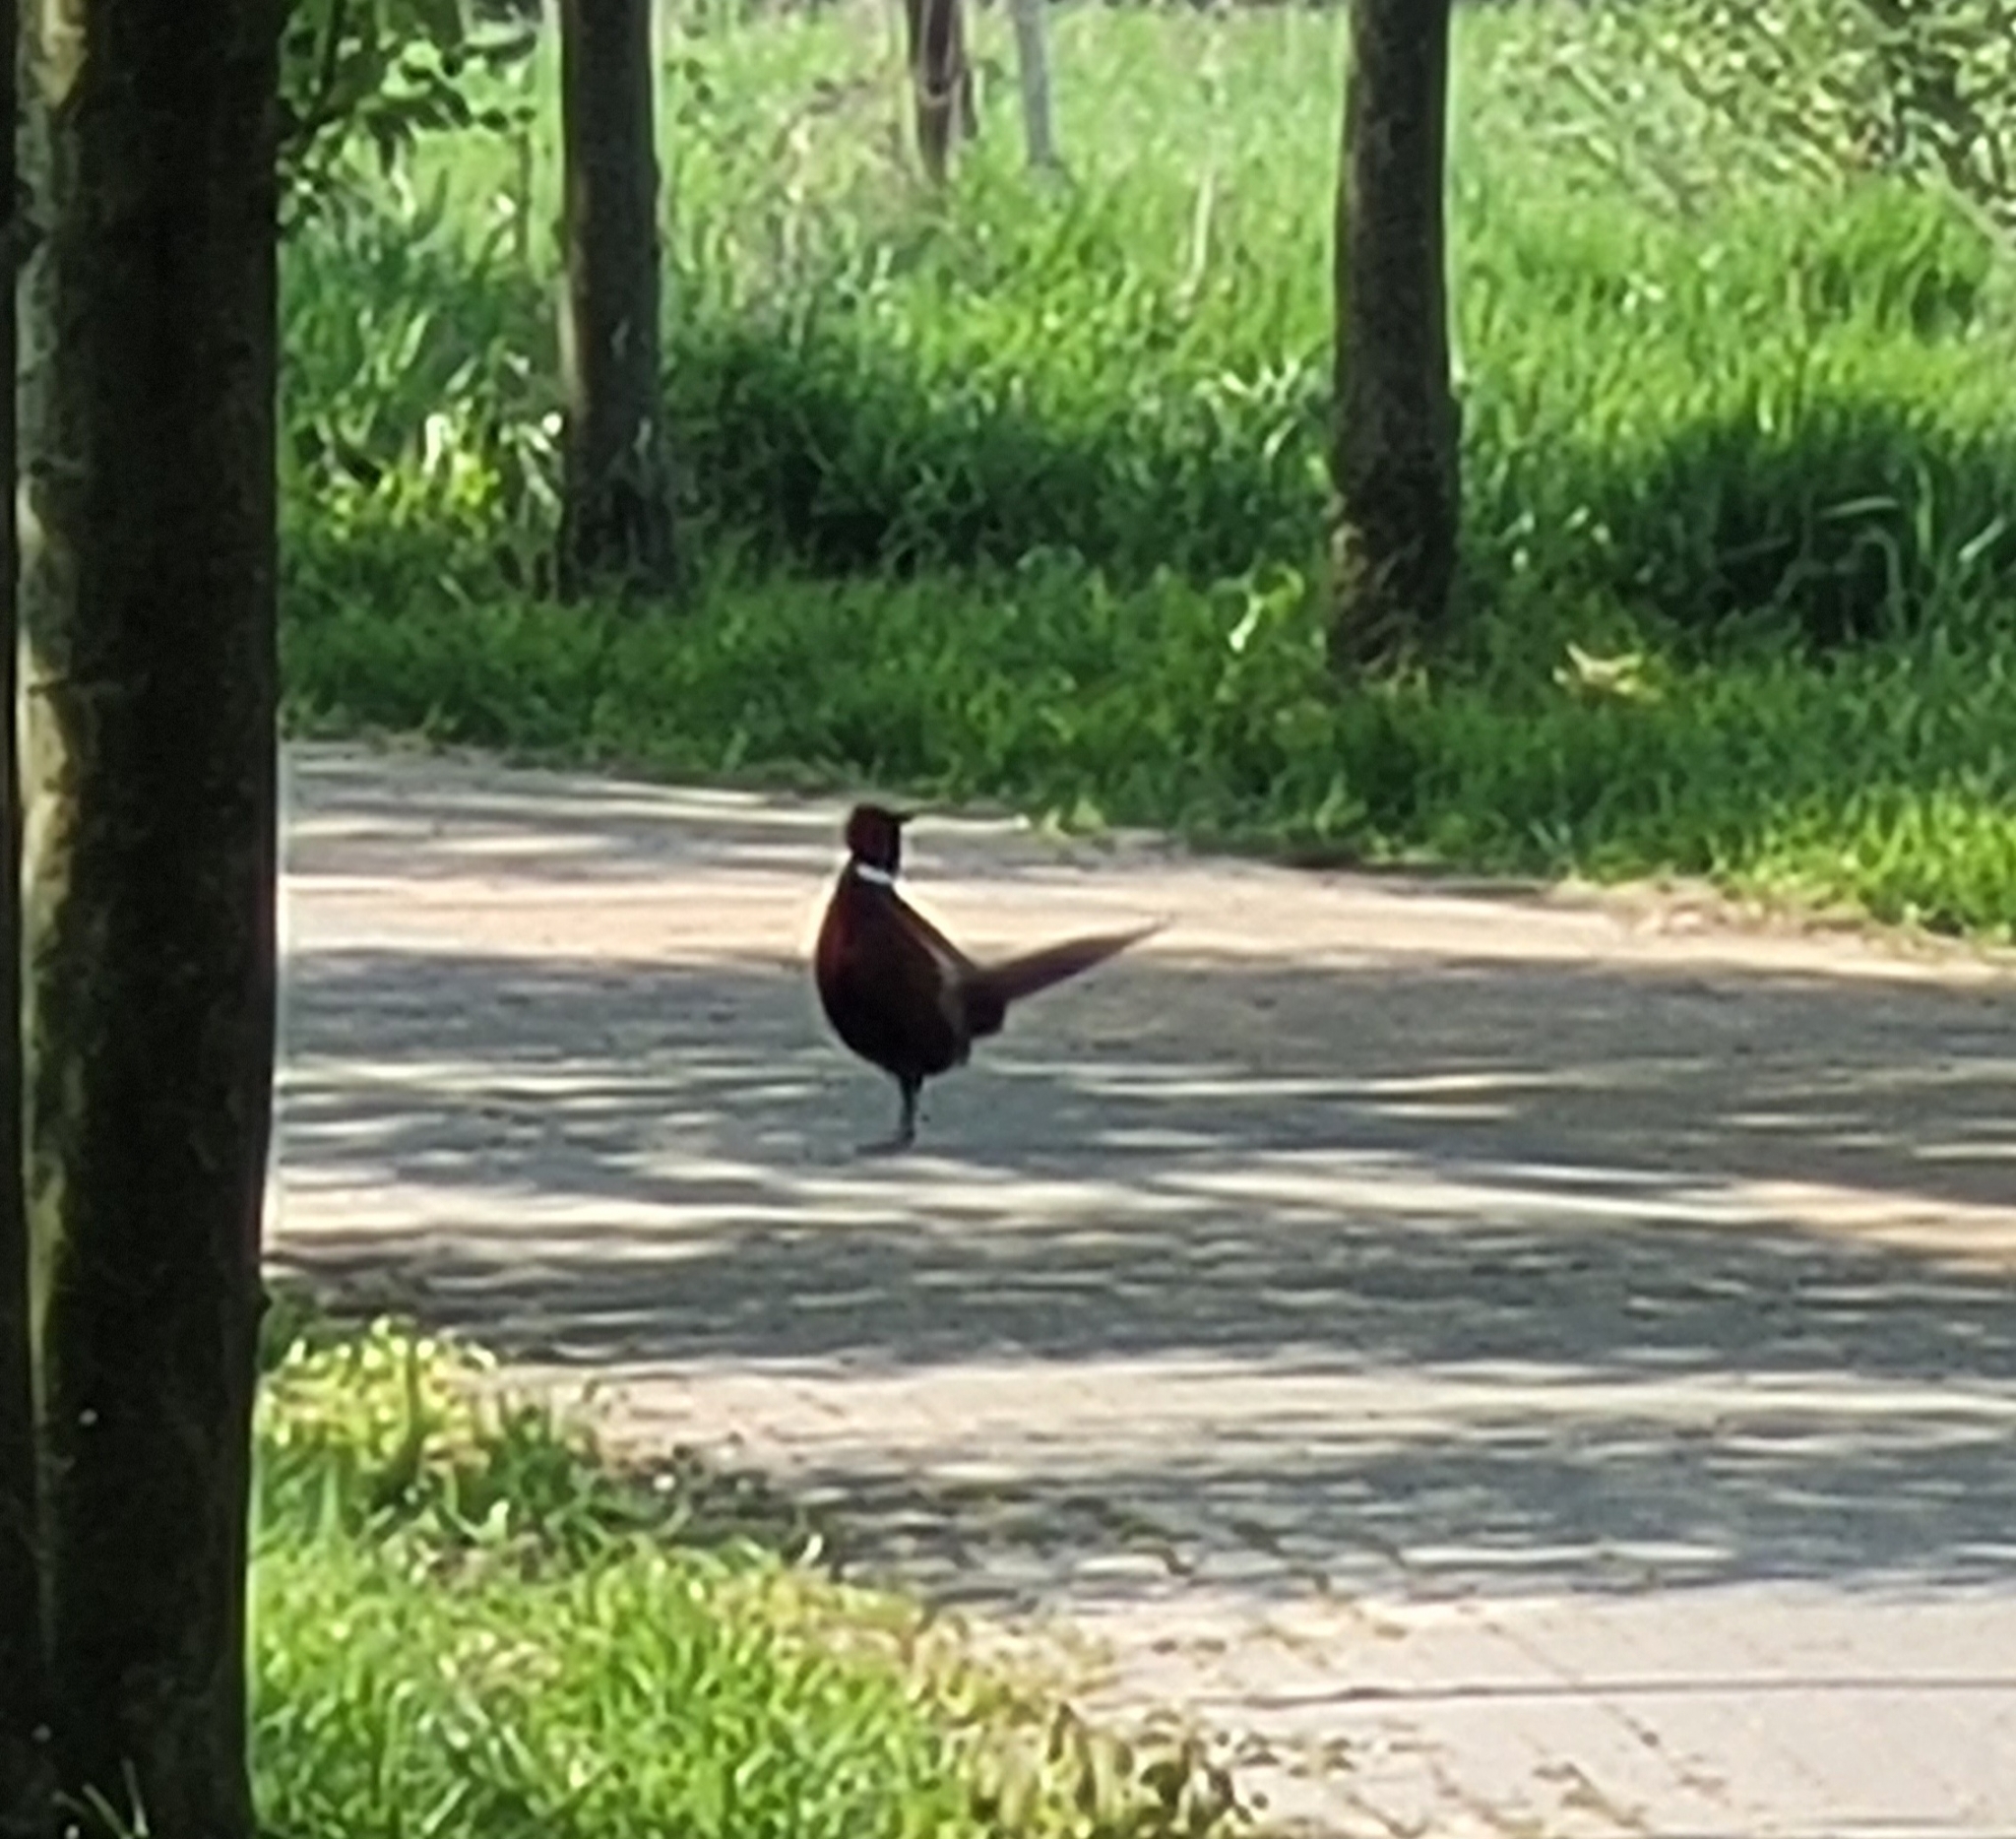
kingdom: Animalia
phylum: Chordata
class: Aves
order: Galliformes
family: Phasianidae
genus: Phasianus
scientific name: Phasianus colchicus
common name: Common pheasant
